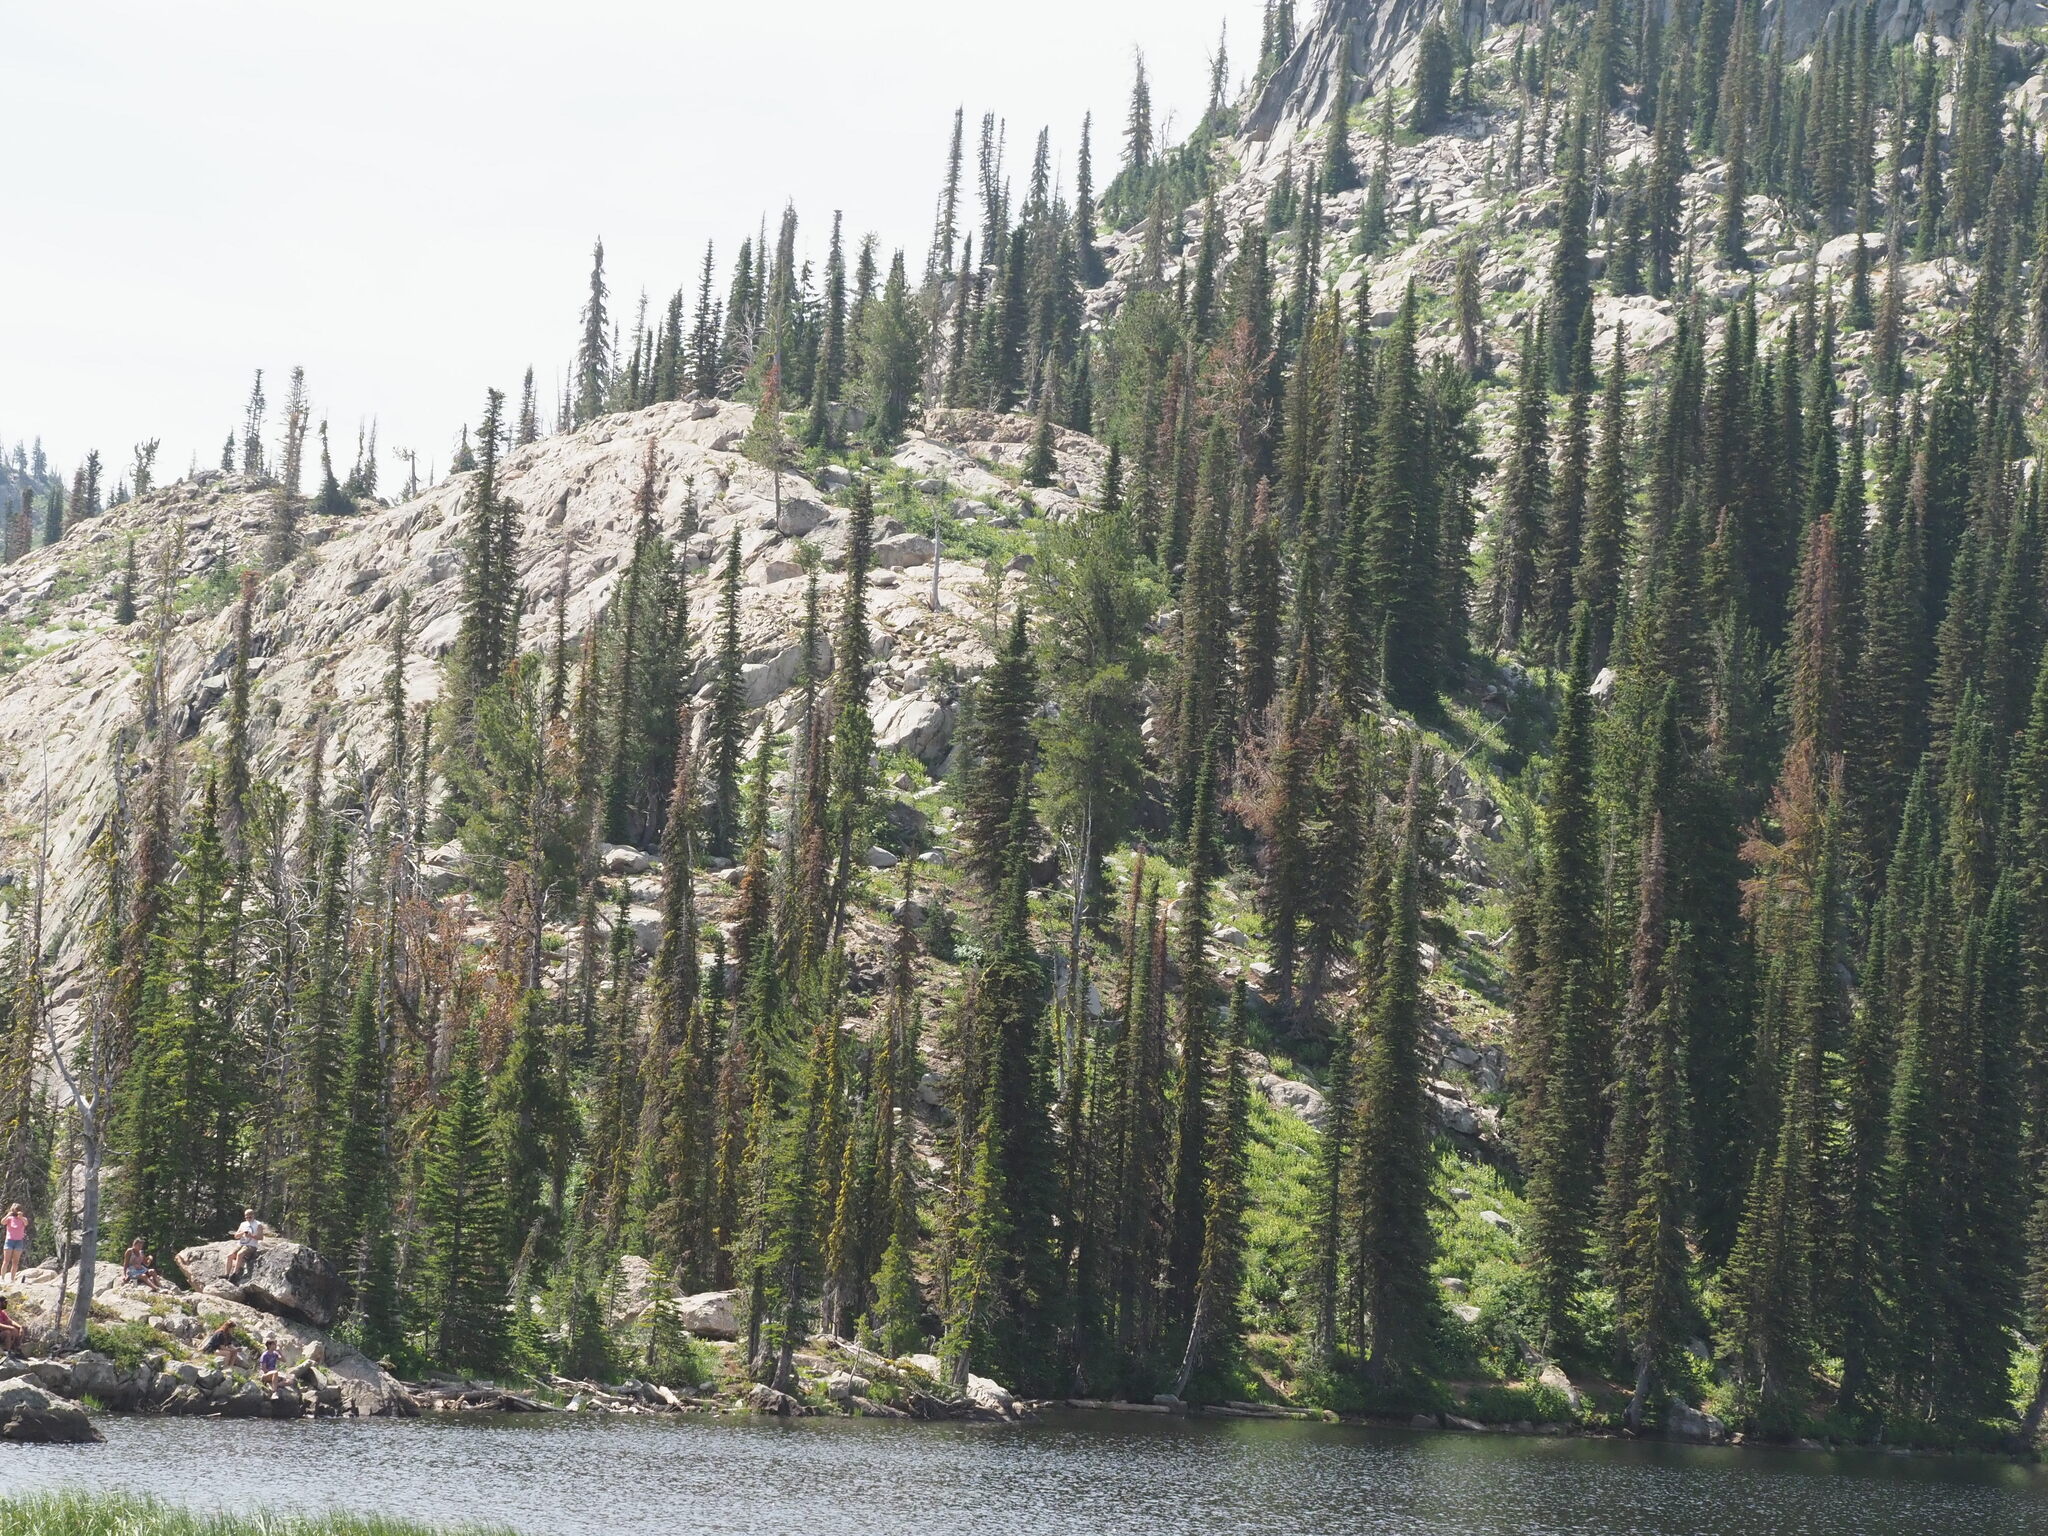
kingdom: Plantae
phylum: Tracheophyta
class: Pinopsida
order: Pinales
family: Pinaceae
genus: Abies
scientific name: Abies lasiocarpa
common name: Subalpine fir
